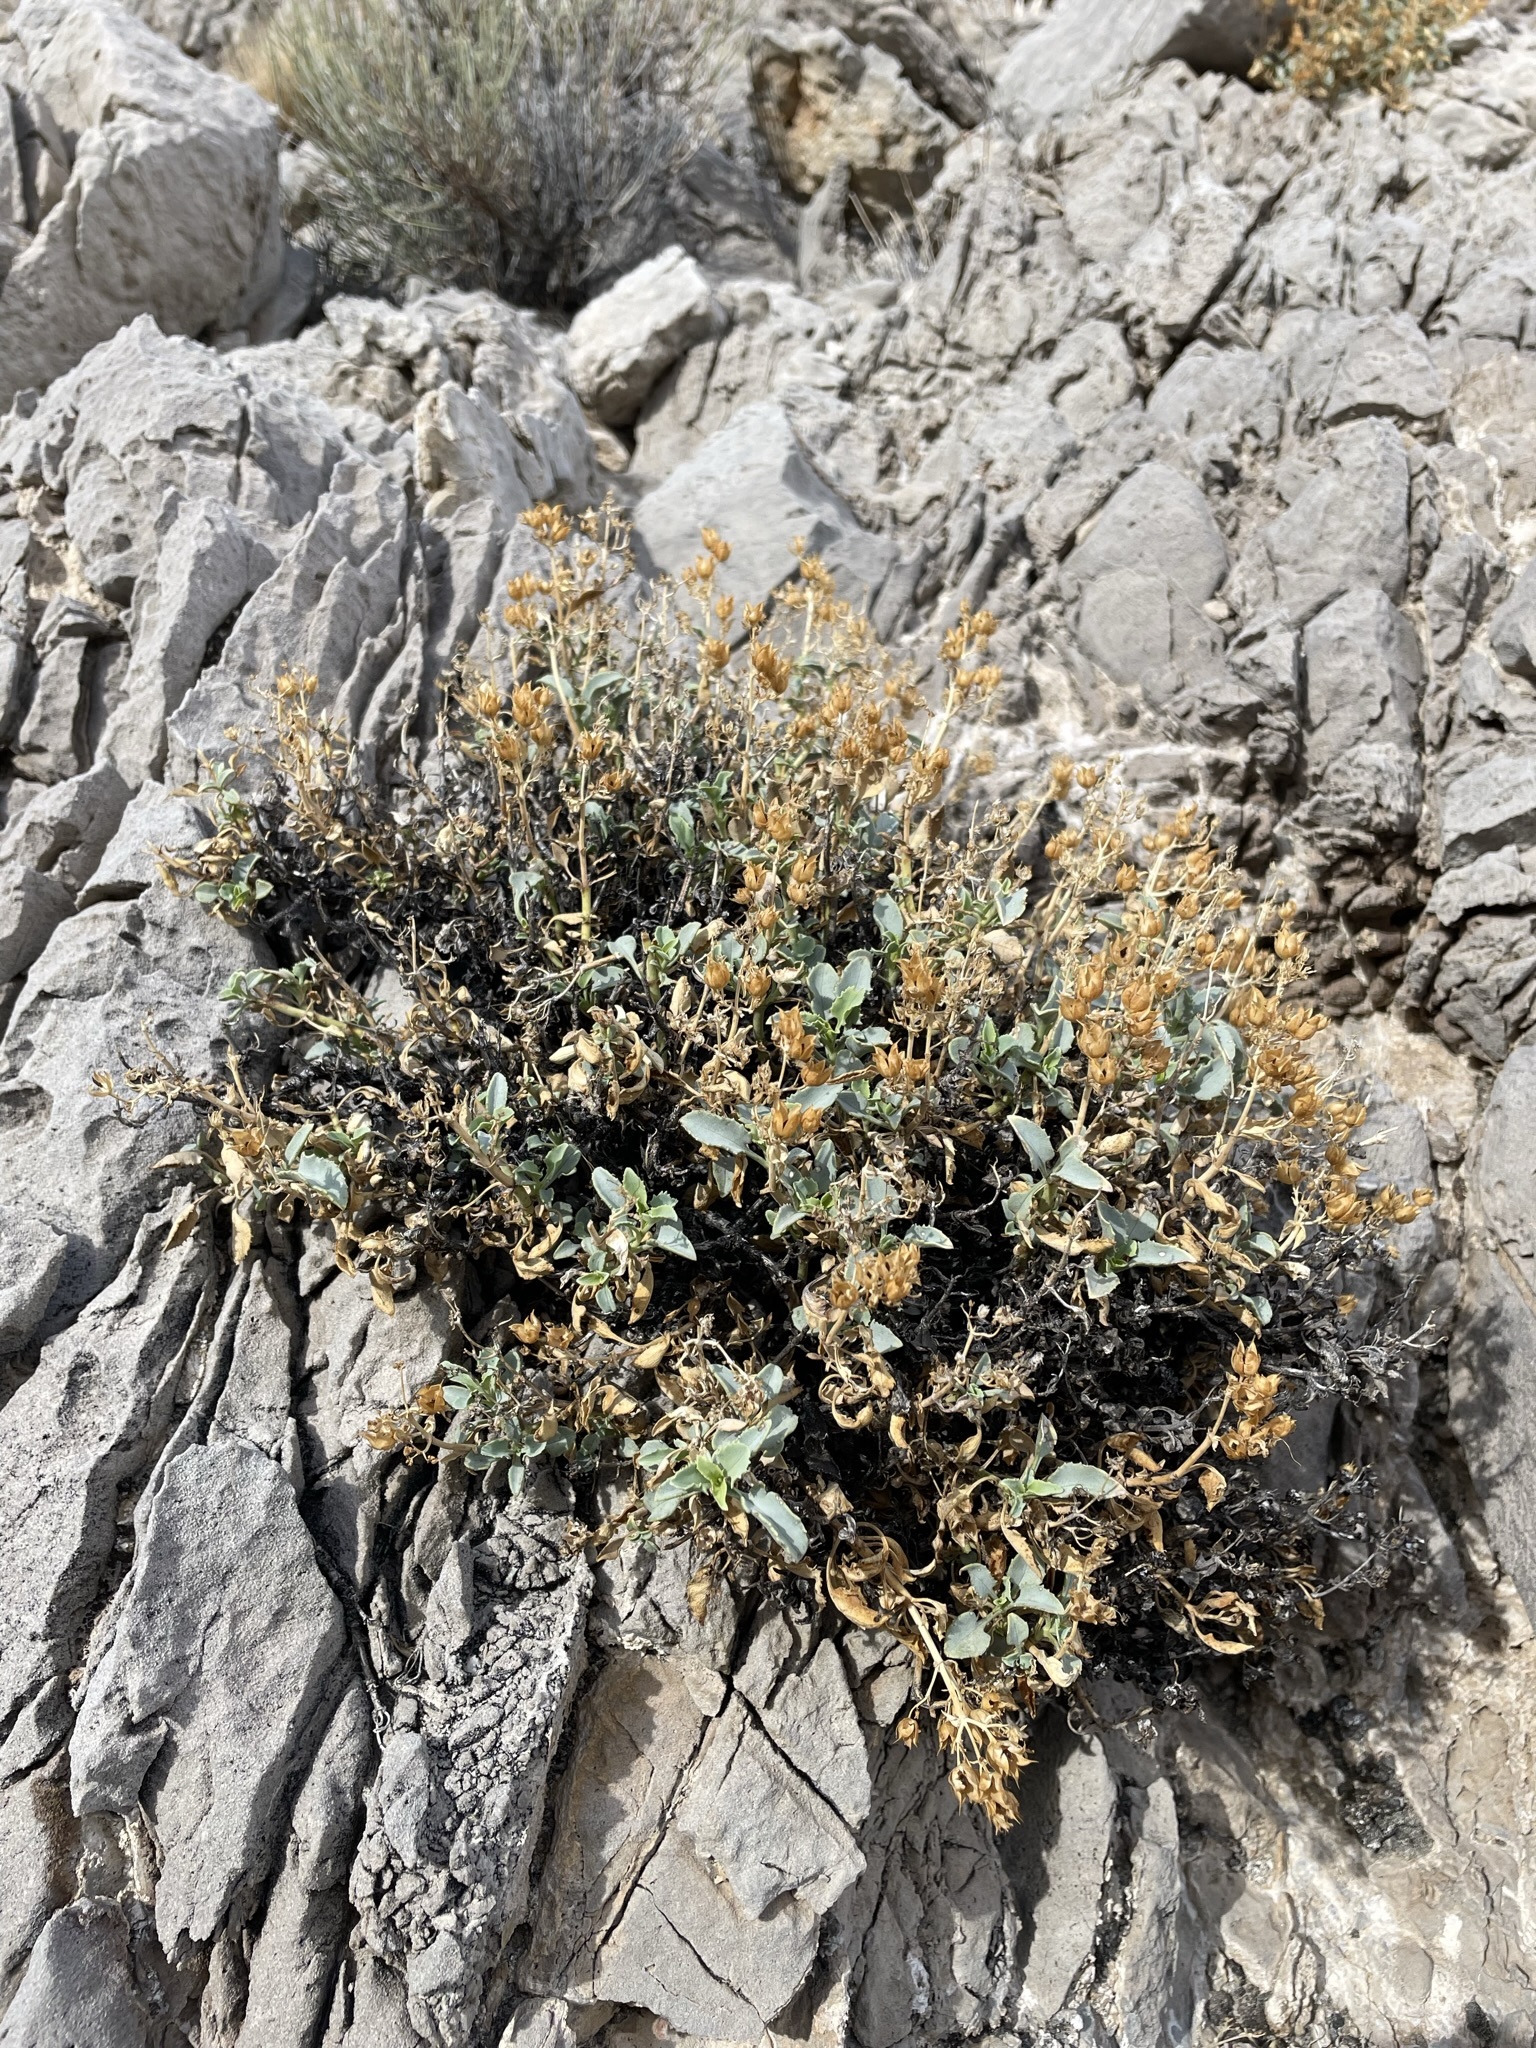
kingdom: Plantae
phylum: Tracheophyta
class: Magnoliopsida
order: Lamiales
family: Plantaginaceae
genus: Penstemon
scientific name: Penstemon petiolatus
